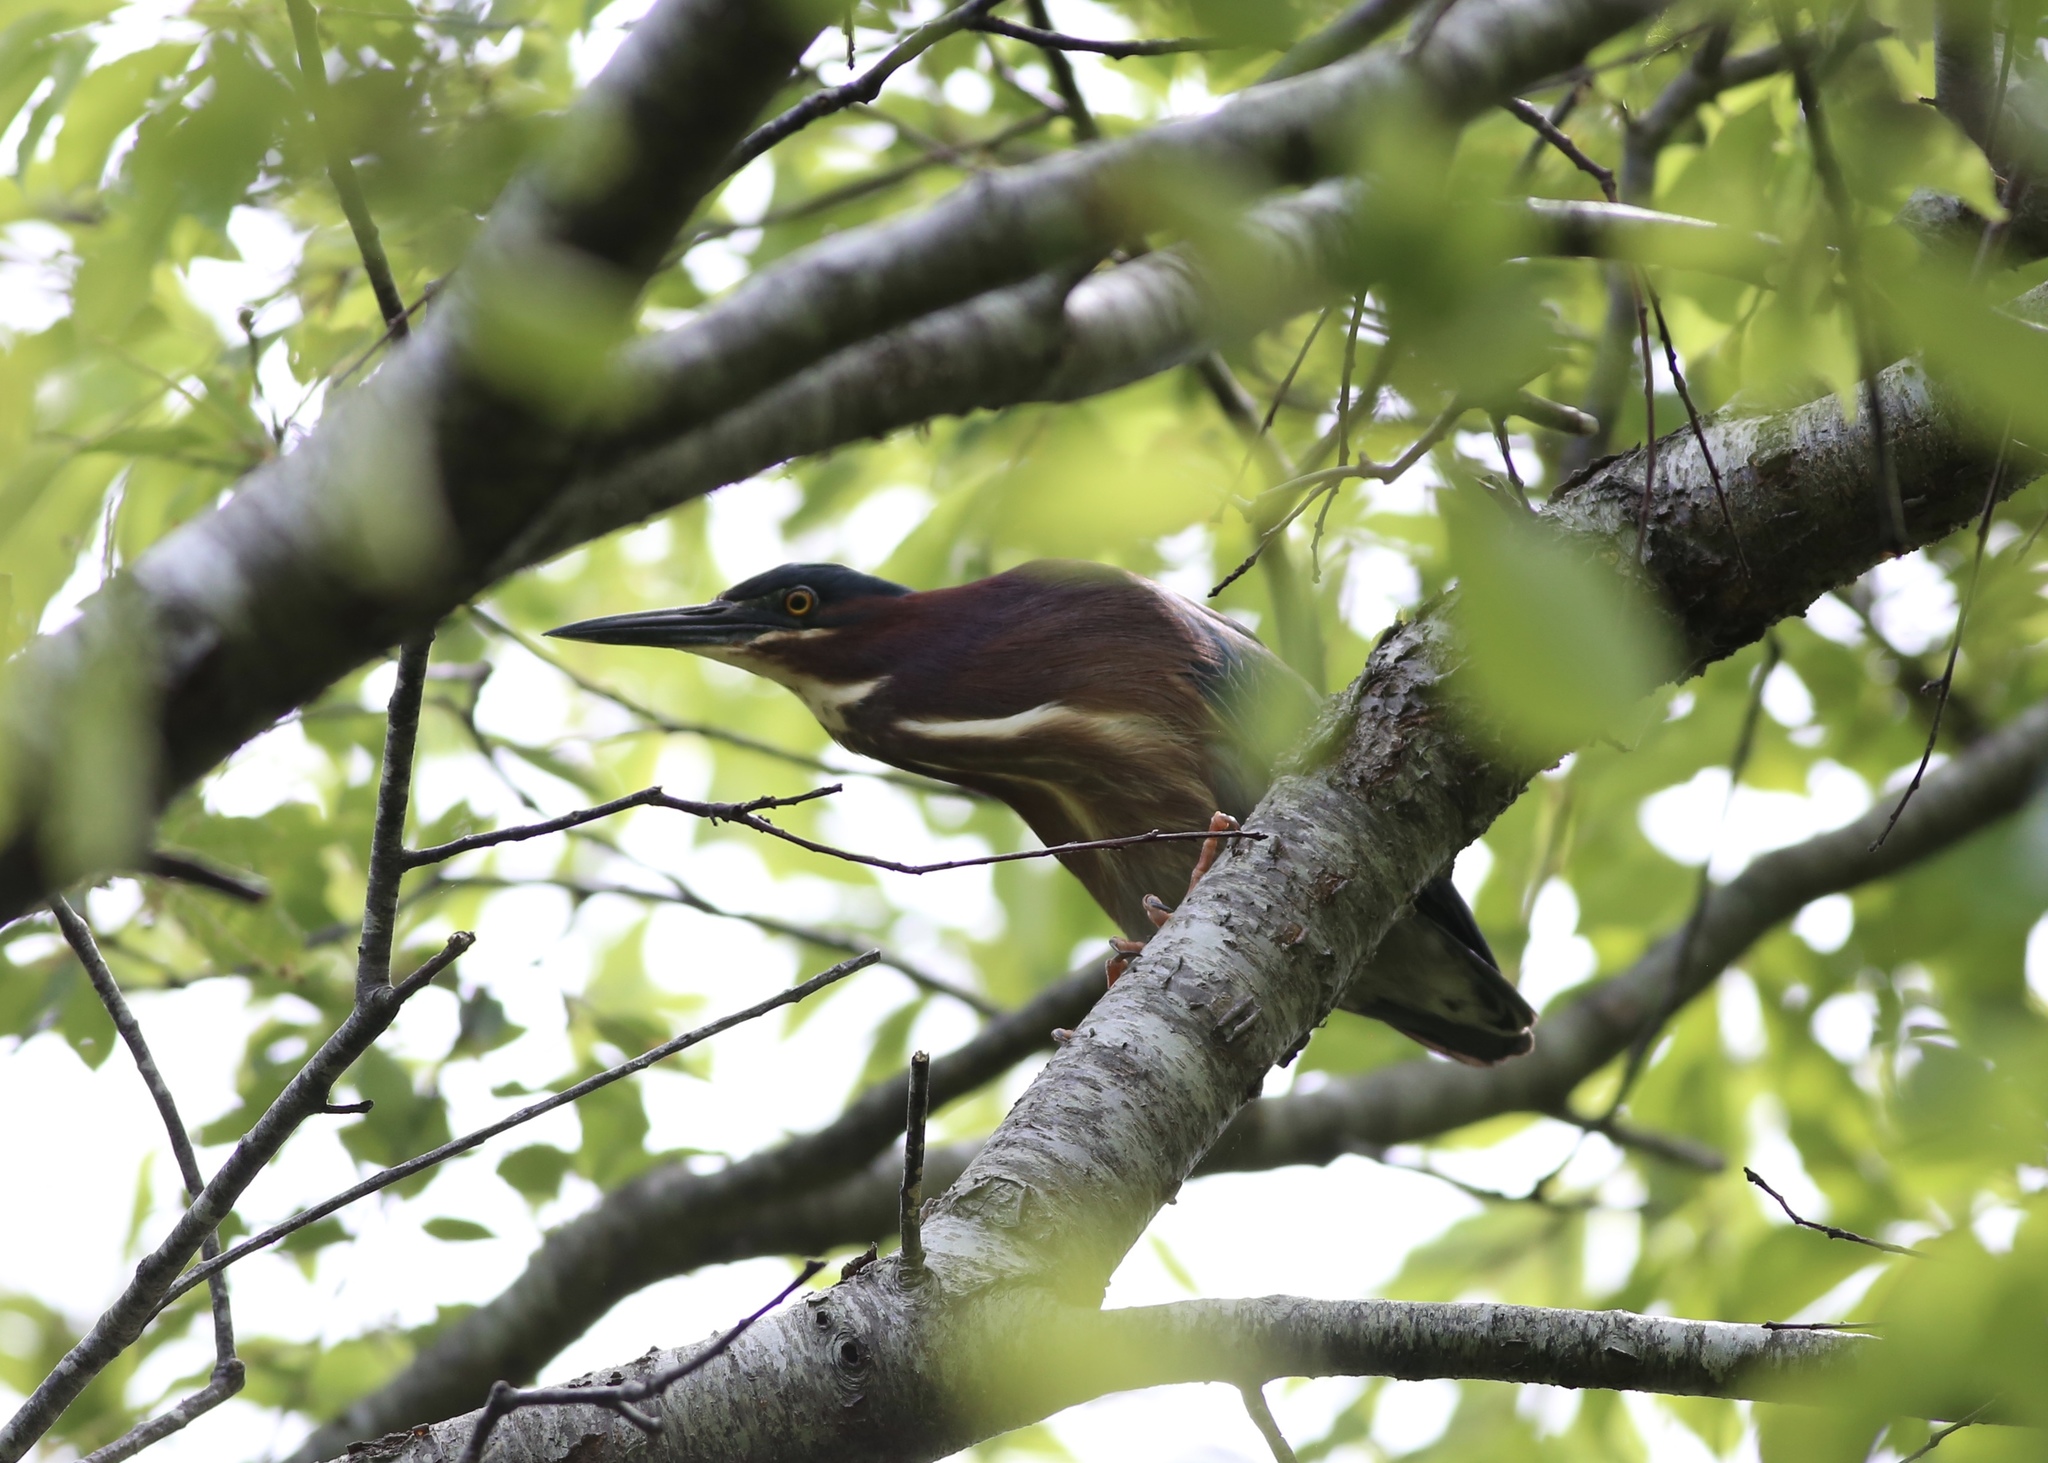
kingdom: Animalia
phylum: Chordata
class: Aves
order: Pelecaniformes
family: Ardeidae
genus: Butorides
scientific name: Butorides virescens
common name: Green heron
